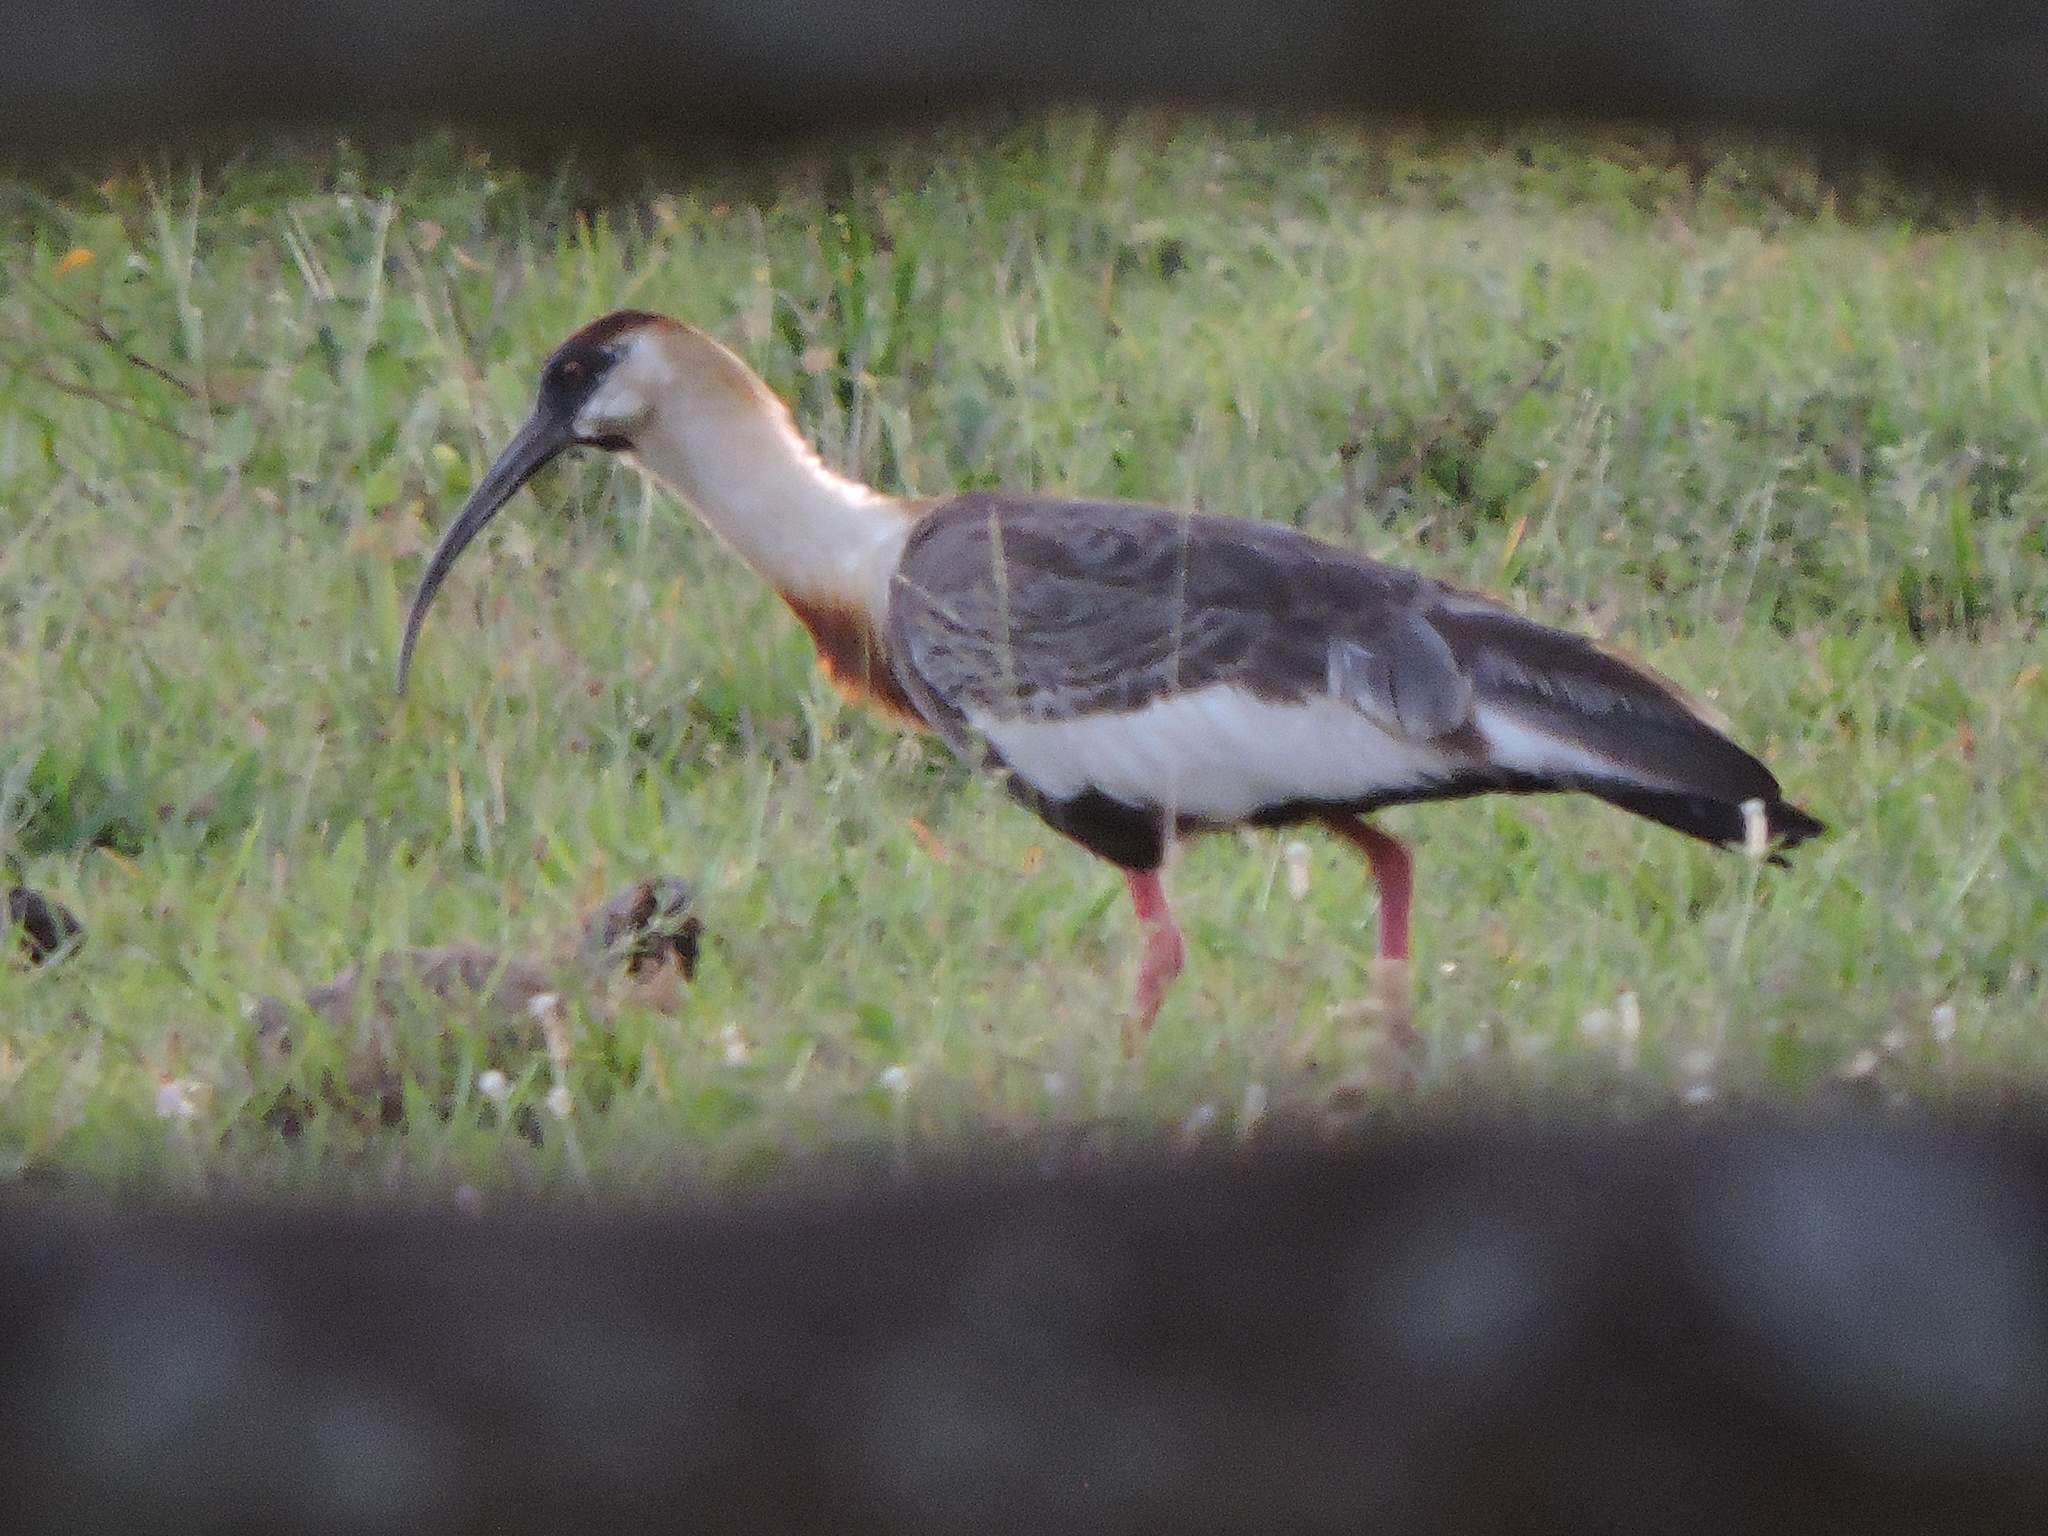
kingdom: Animalia
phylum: Chordata
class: Aves
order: Pelecaniformes
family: Threskiornithidae
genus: Theristicus
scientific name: Theristicus caudatus
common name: Buff-necked ibis
